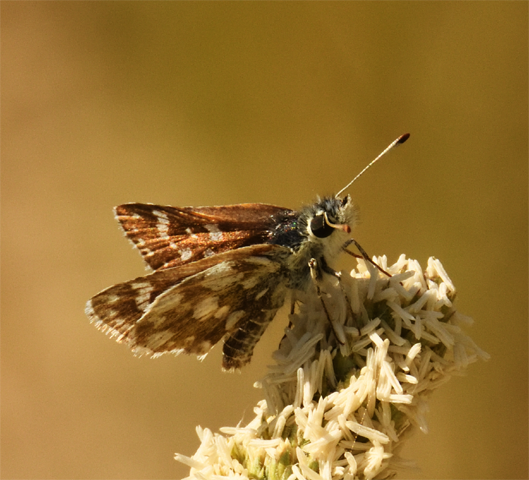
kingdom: Animalia
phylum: Arthropoda
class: Insecta
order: Lepidoptera
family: Hesperiidae
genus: Spialia
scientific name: Spialia sertorius
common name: Red underwing skipper
